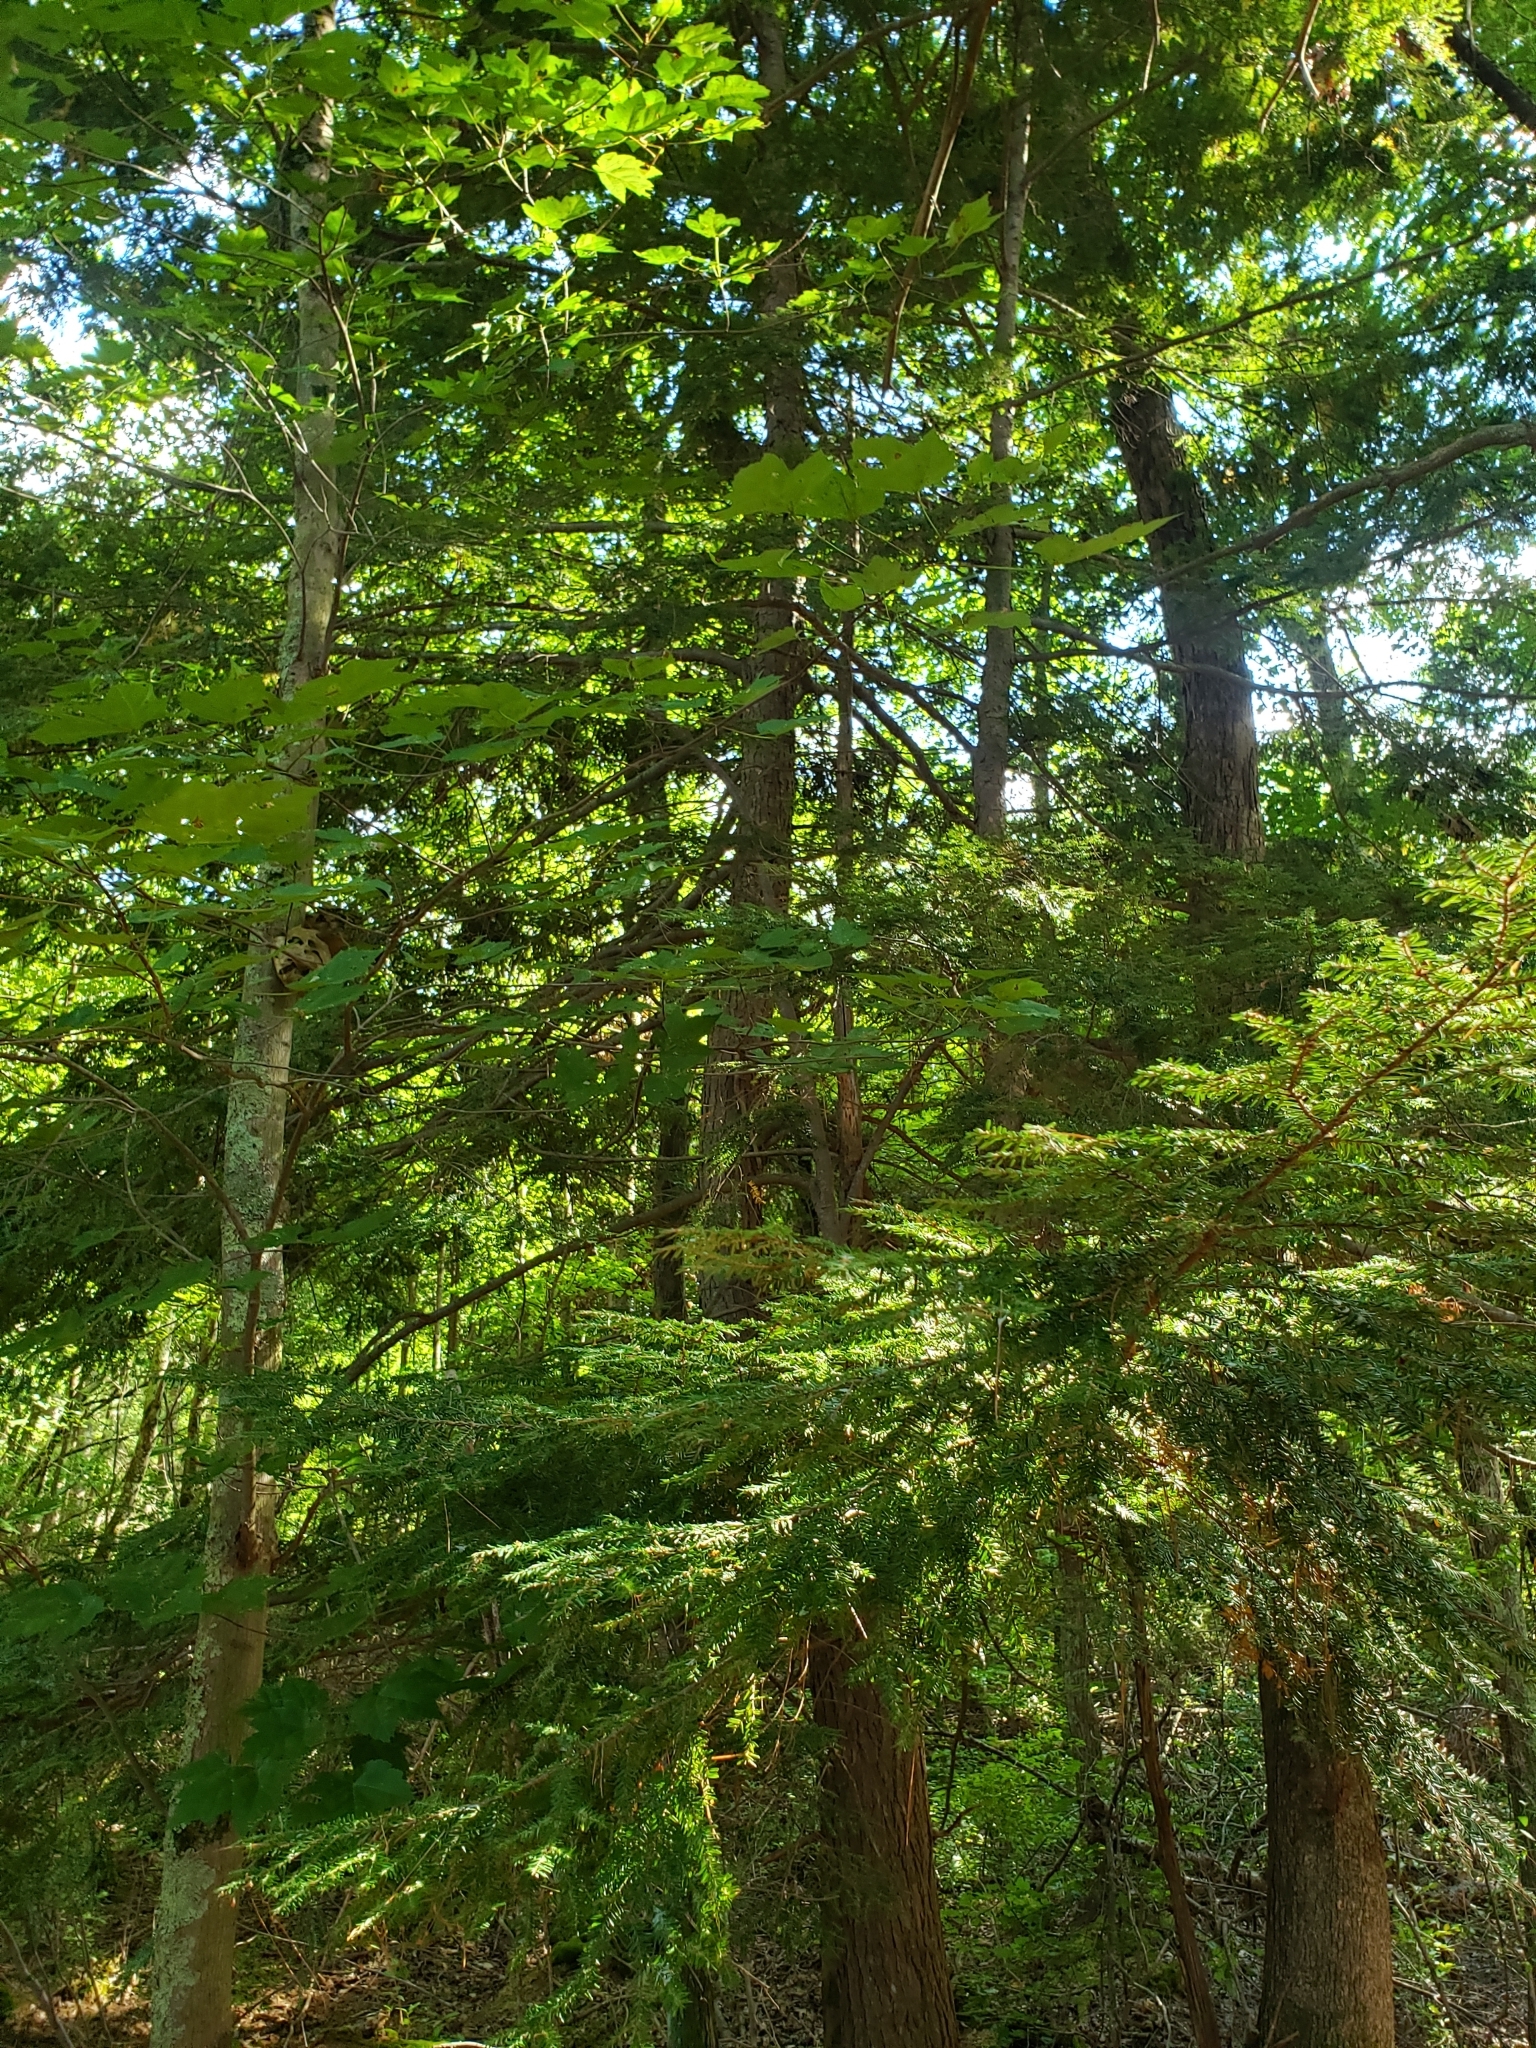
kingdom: Plantae
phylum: Tracheophyta
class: Pinopsida
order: Pinales
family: Pinaceae
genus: Tsuga
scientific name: Tsuga canadensis
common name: Eastern hemlock
